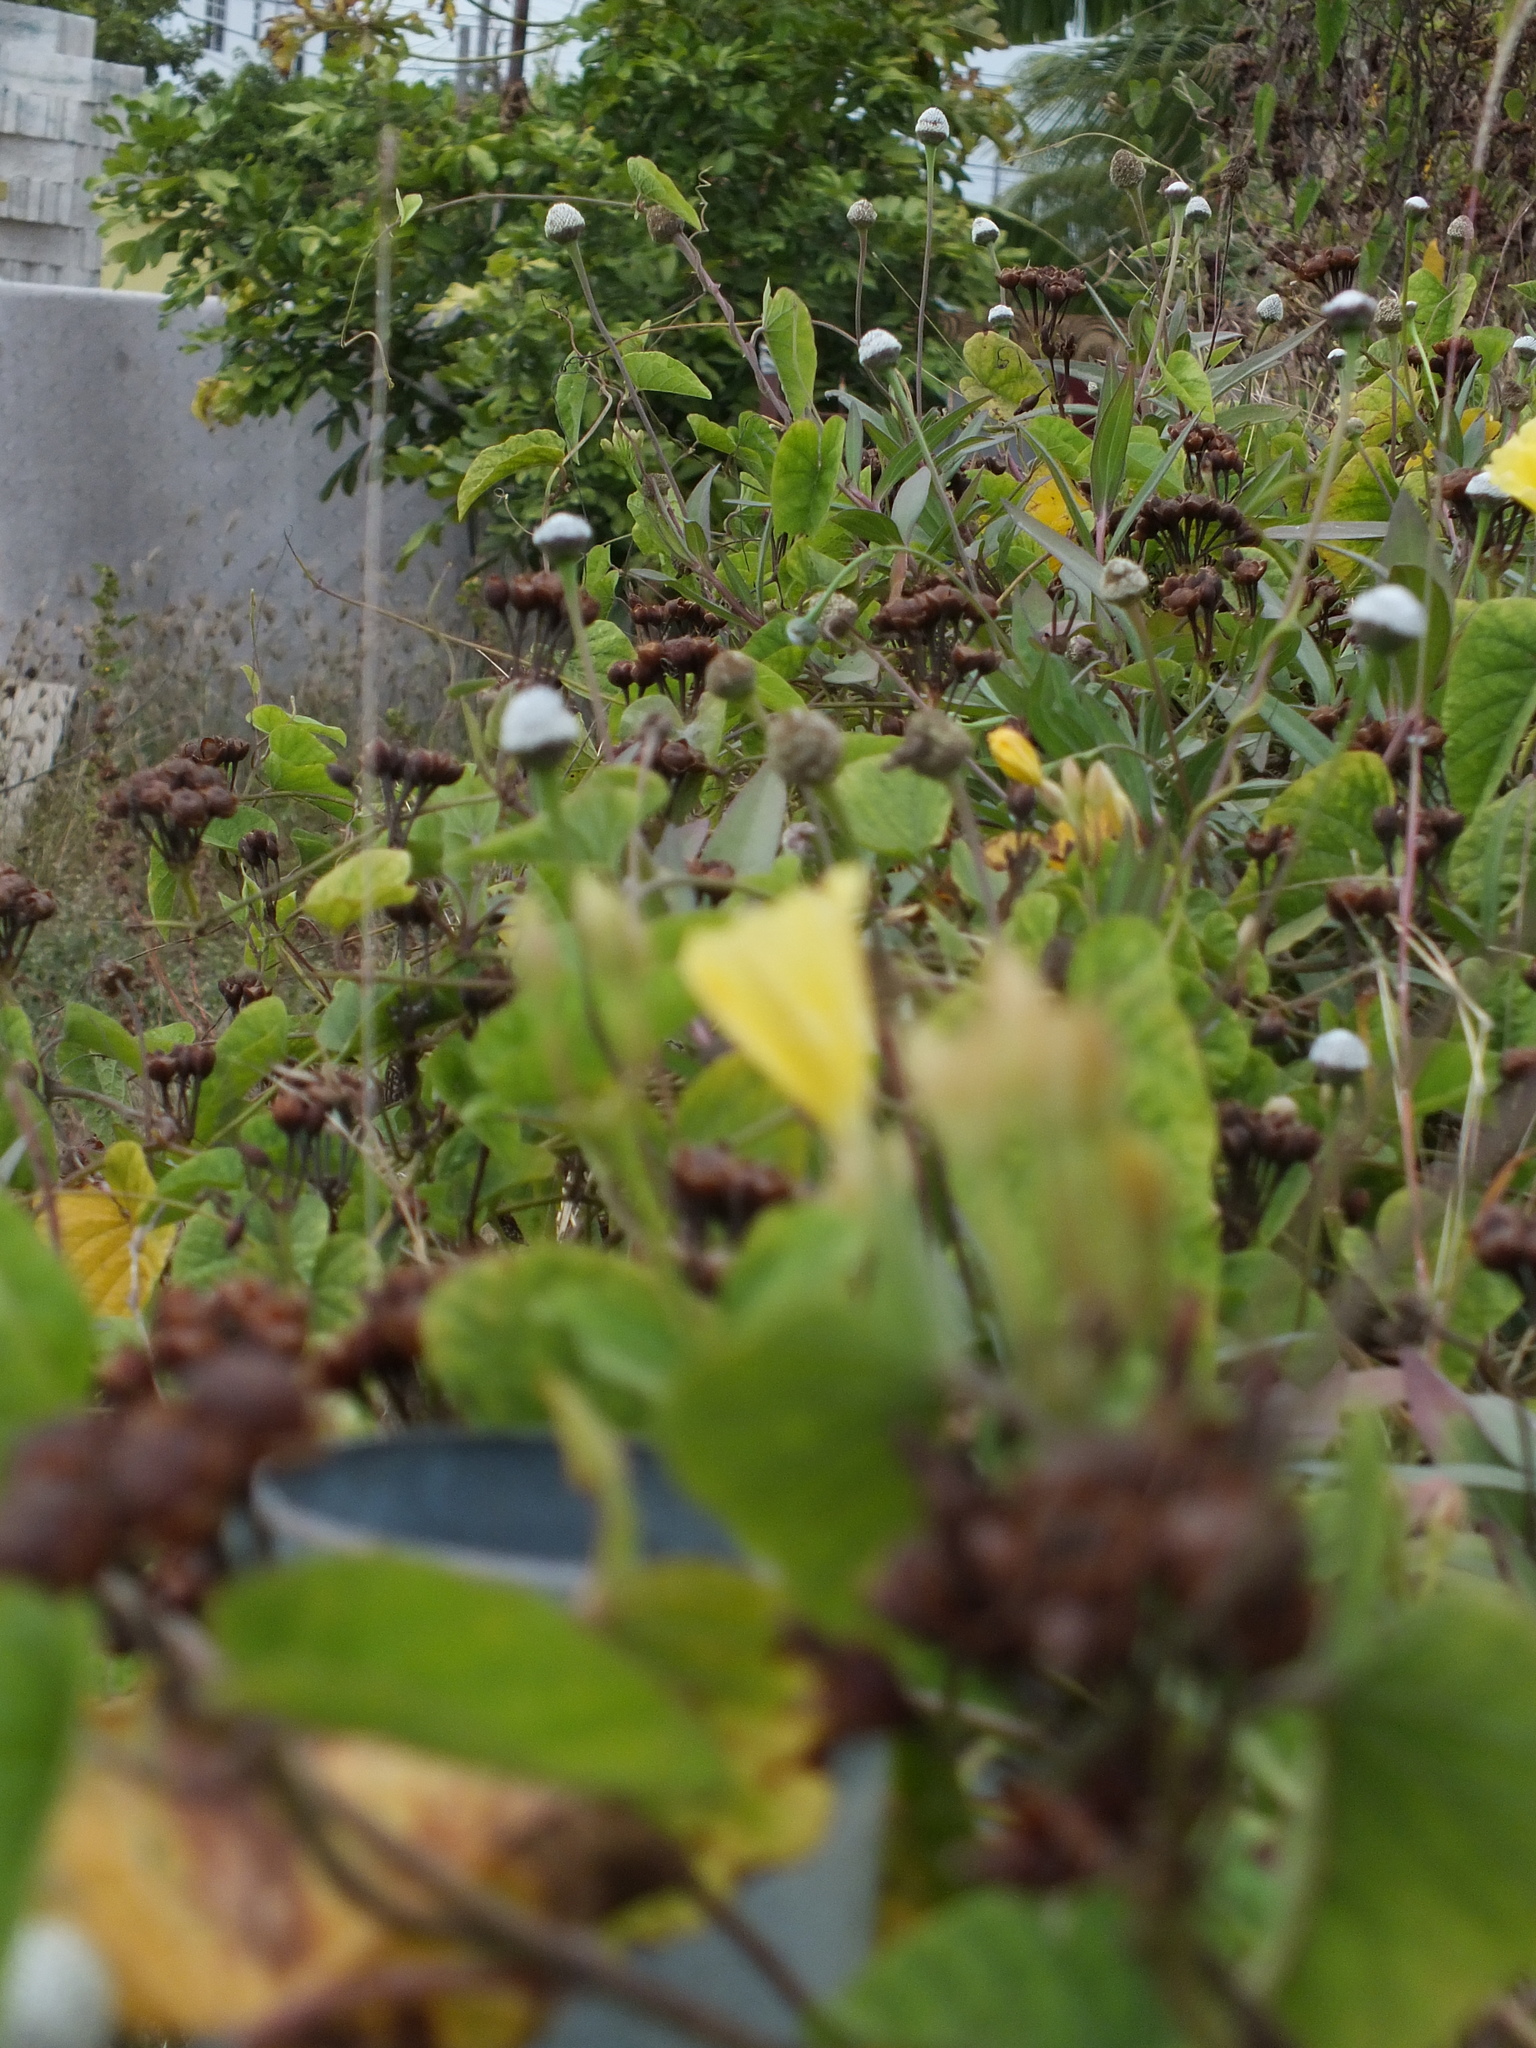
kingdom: Plantae
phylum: Tracheophyta
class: Magnoliopsida
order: Asterales
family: Asteraceae
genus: Spilanthes
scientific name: Spilanthes urens
